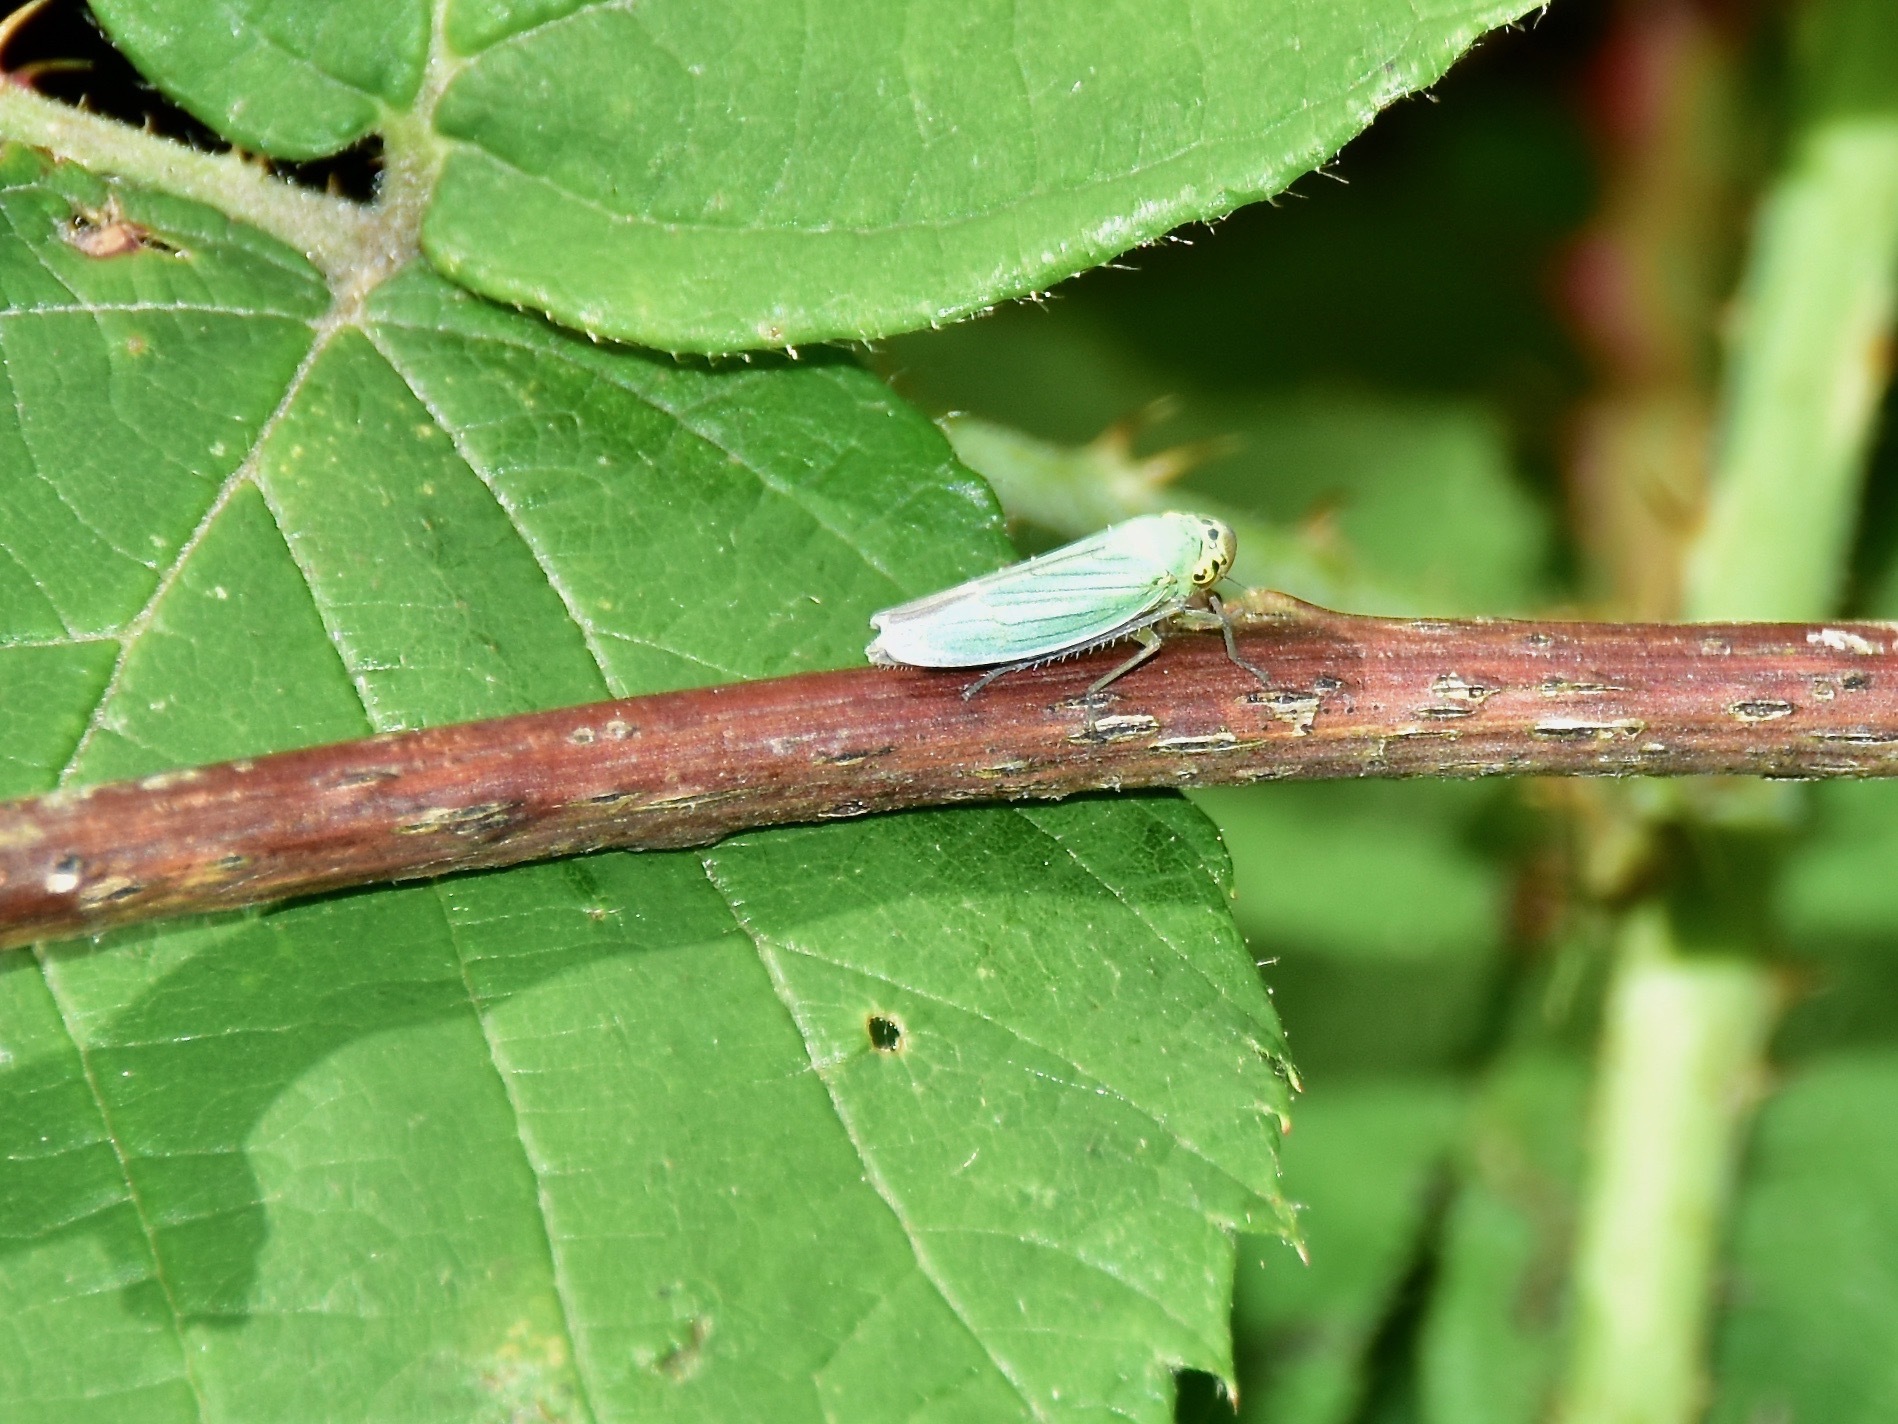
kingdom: Animalia
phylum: Arthropoda
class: Insecta
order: Hemiptera
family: Cicadellidae
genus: Cicadella
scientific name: Cicadella viridis
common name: Leafhopper
